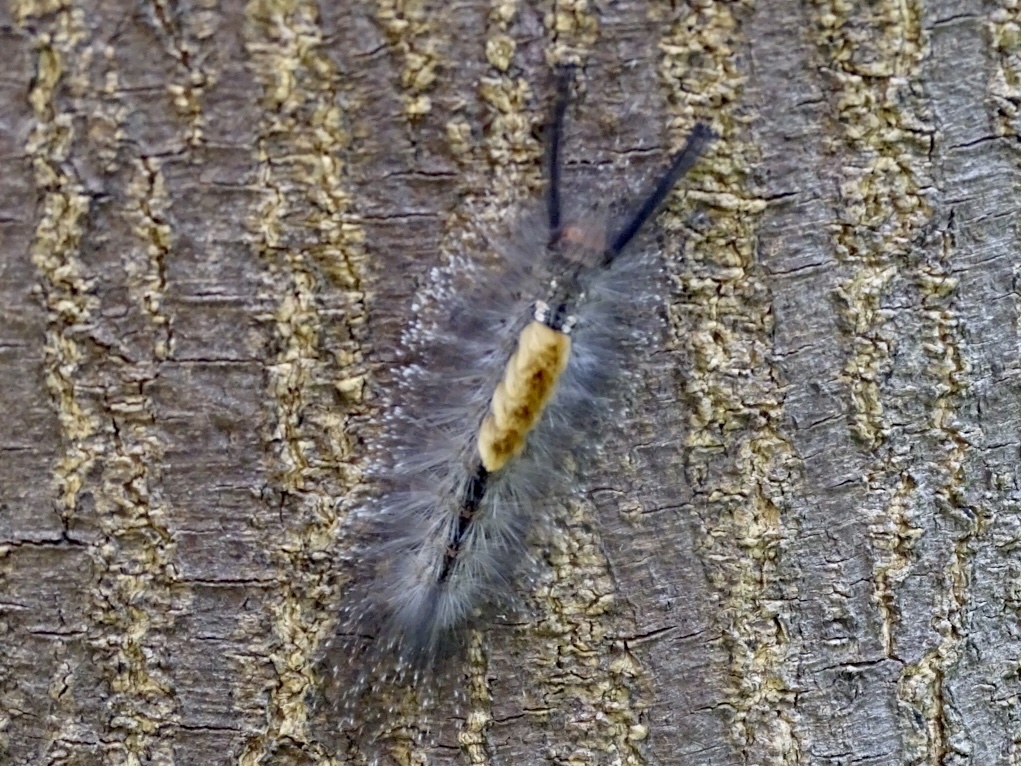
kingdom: Animalia
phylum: Arthropoda
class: Insecta
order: Lepidoptera
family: Erebidae
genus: Dasychira
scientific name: Dasychira chekiangensis
